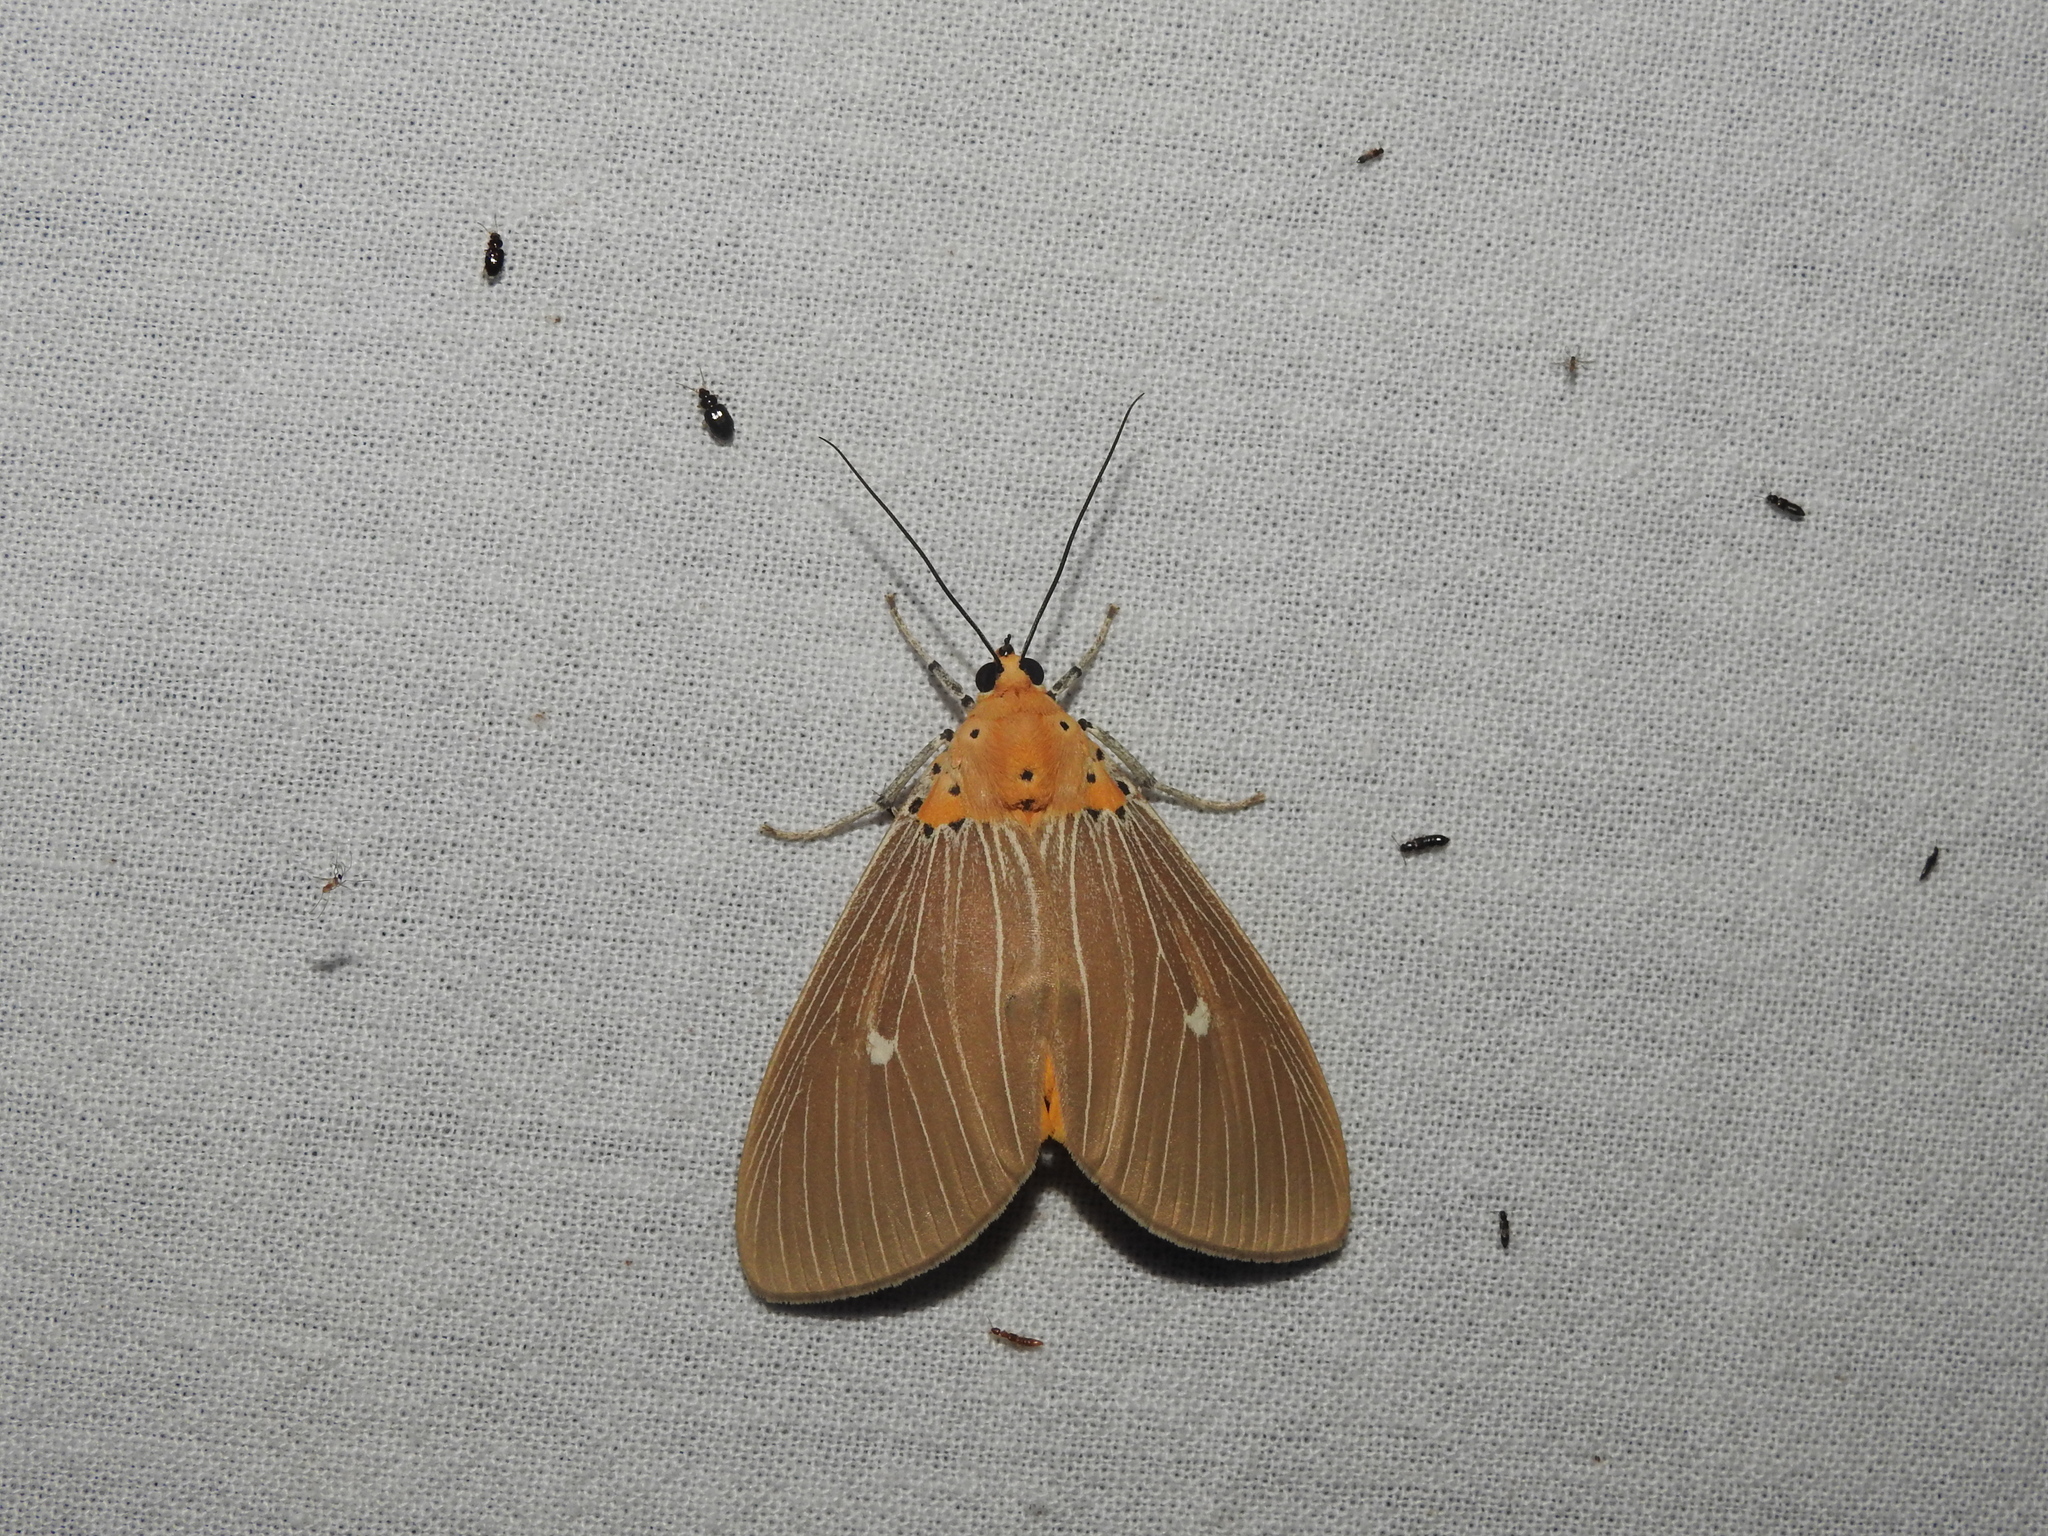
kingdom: Animalia
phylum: Arthropoda
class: Insecta
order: Lepidoptera
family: Erebidae
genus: Asota
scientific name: Asota caricae
